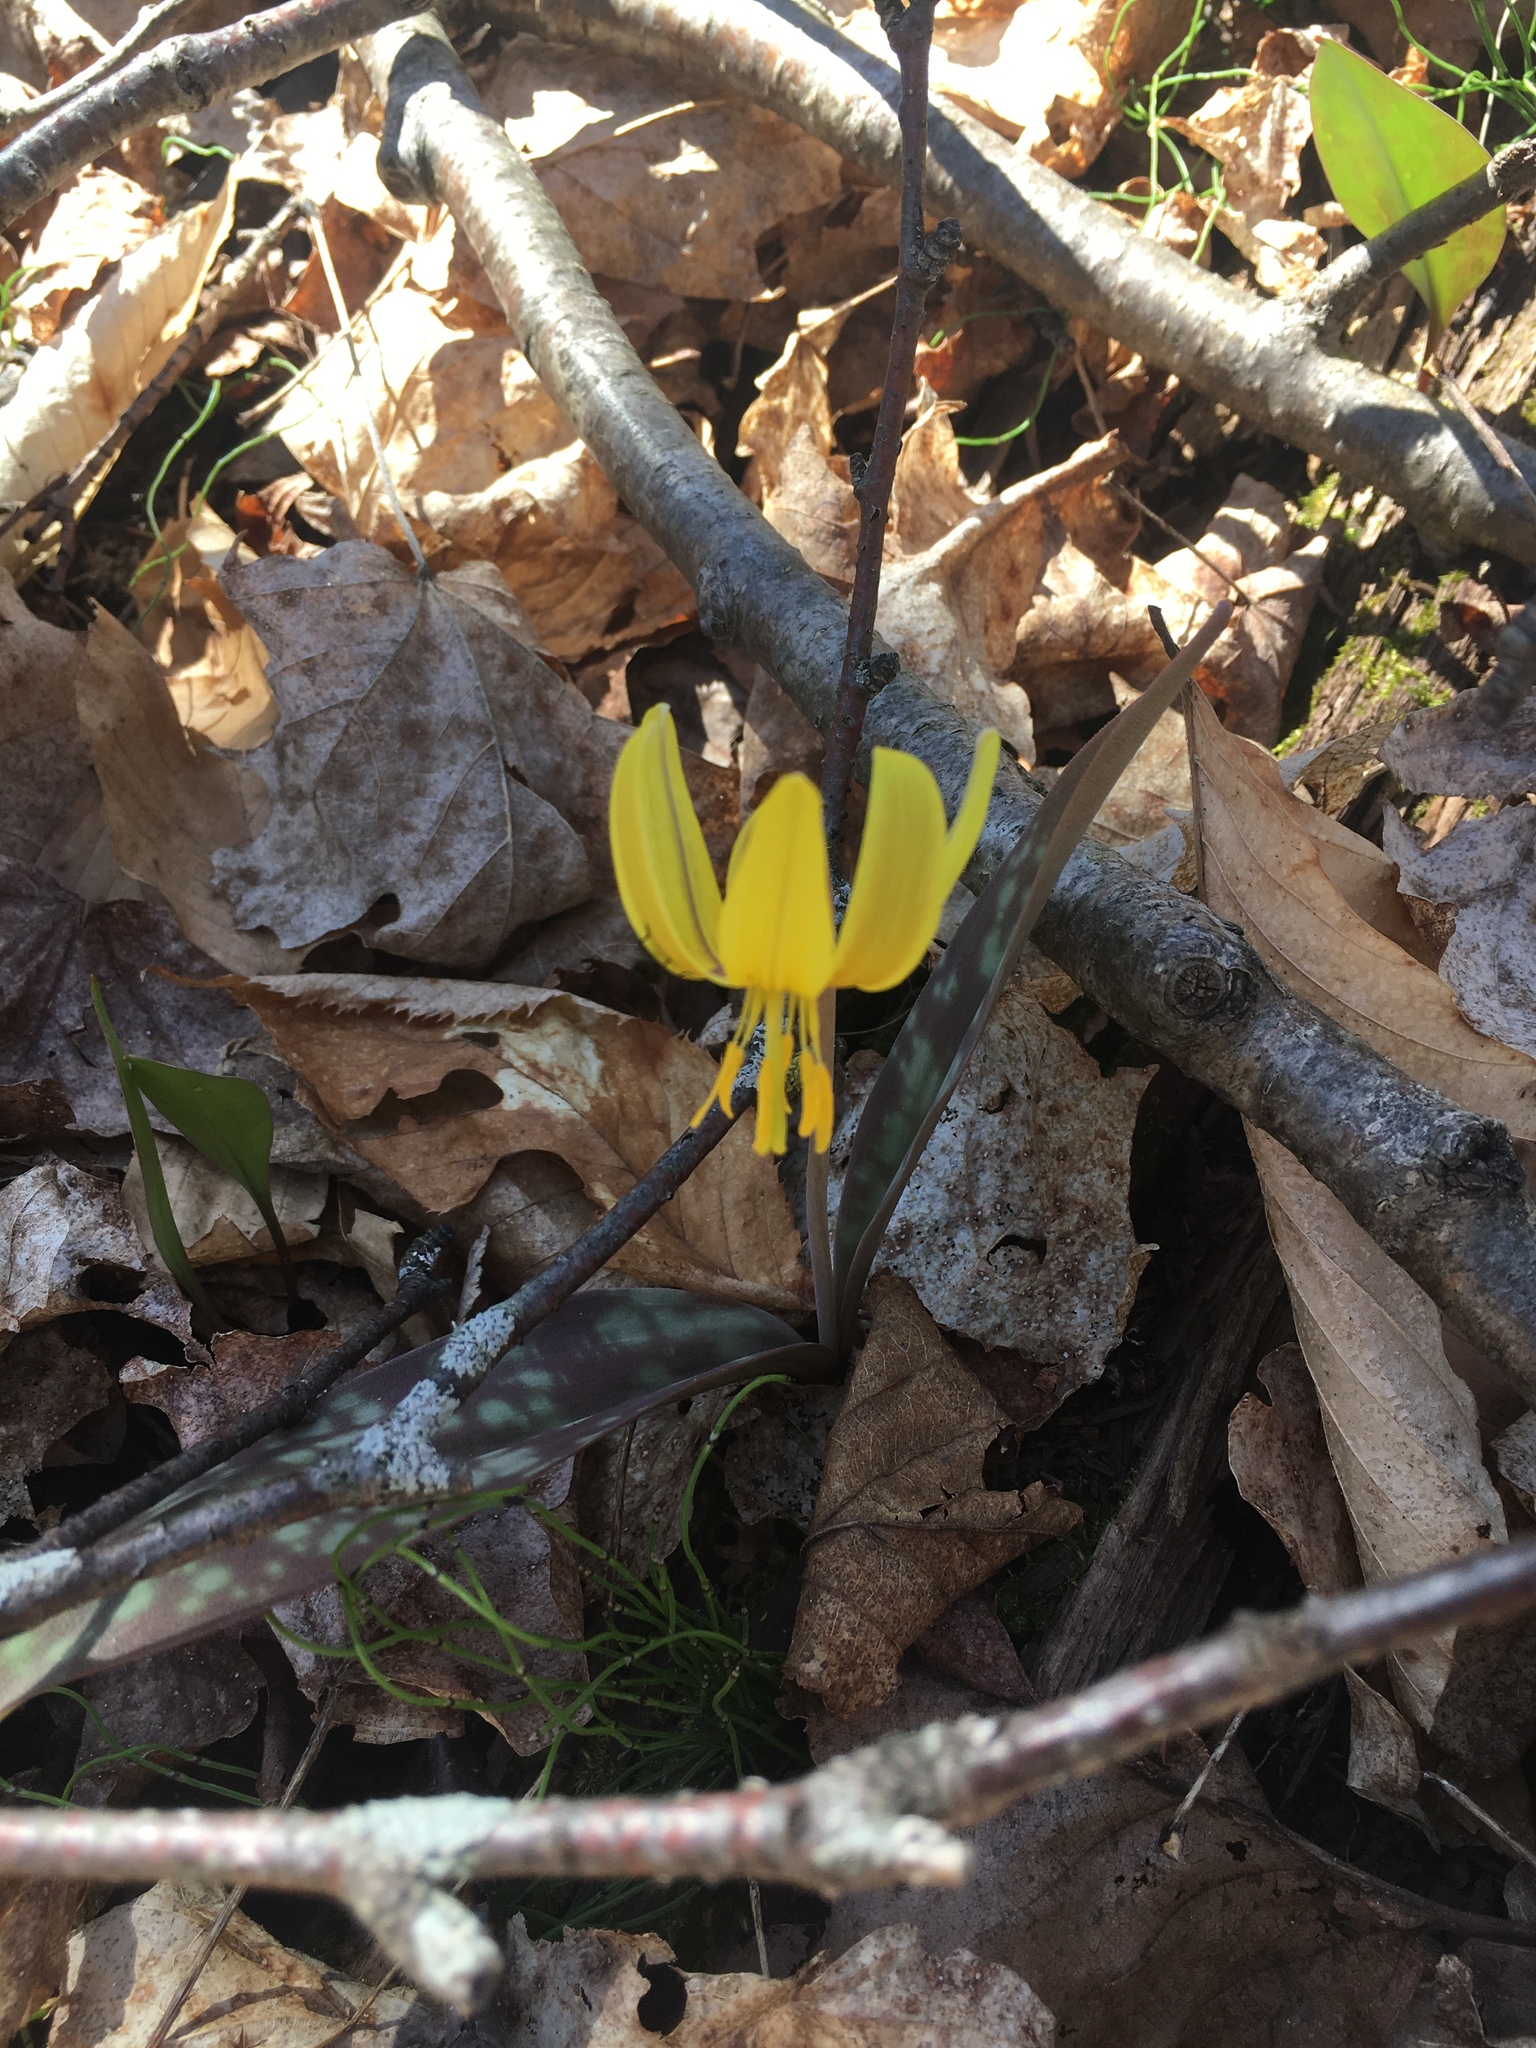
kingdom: Plantae
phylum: Tracheophyta
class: Liliopsida
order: Liliales
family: Liliaceae
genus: Erythronium
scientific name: Erythronium americanum
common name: Yellow adder's-tongue
